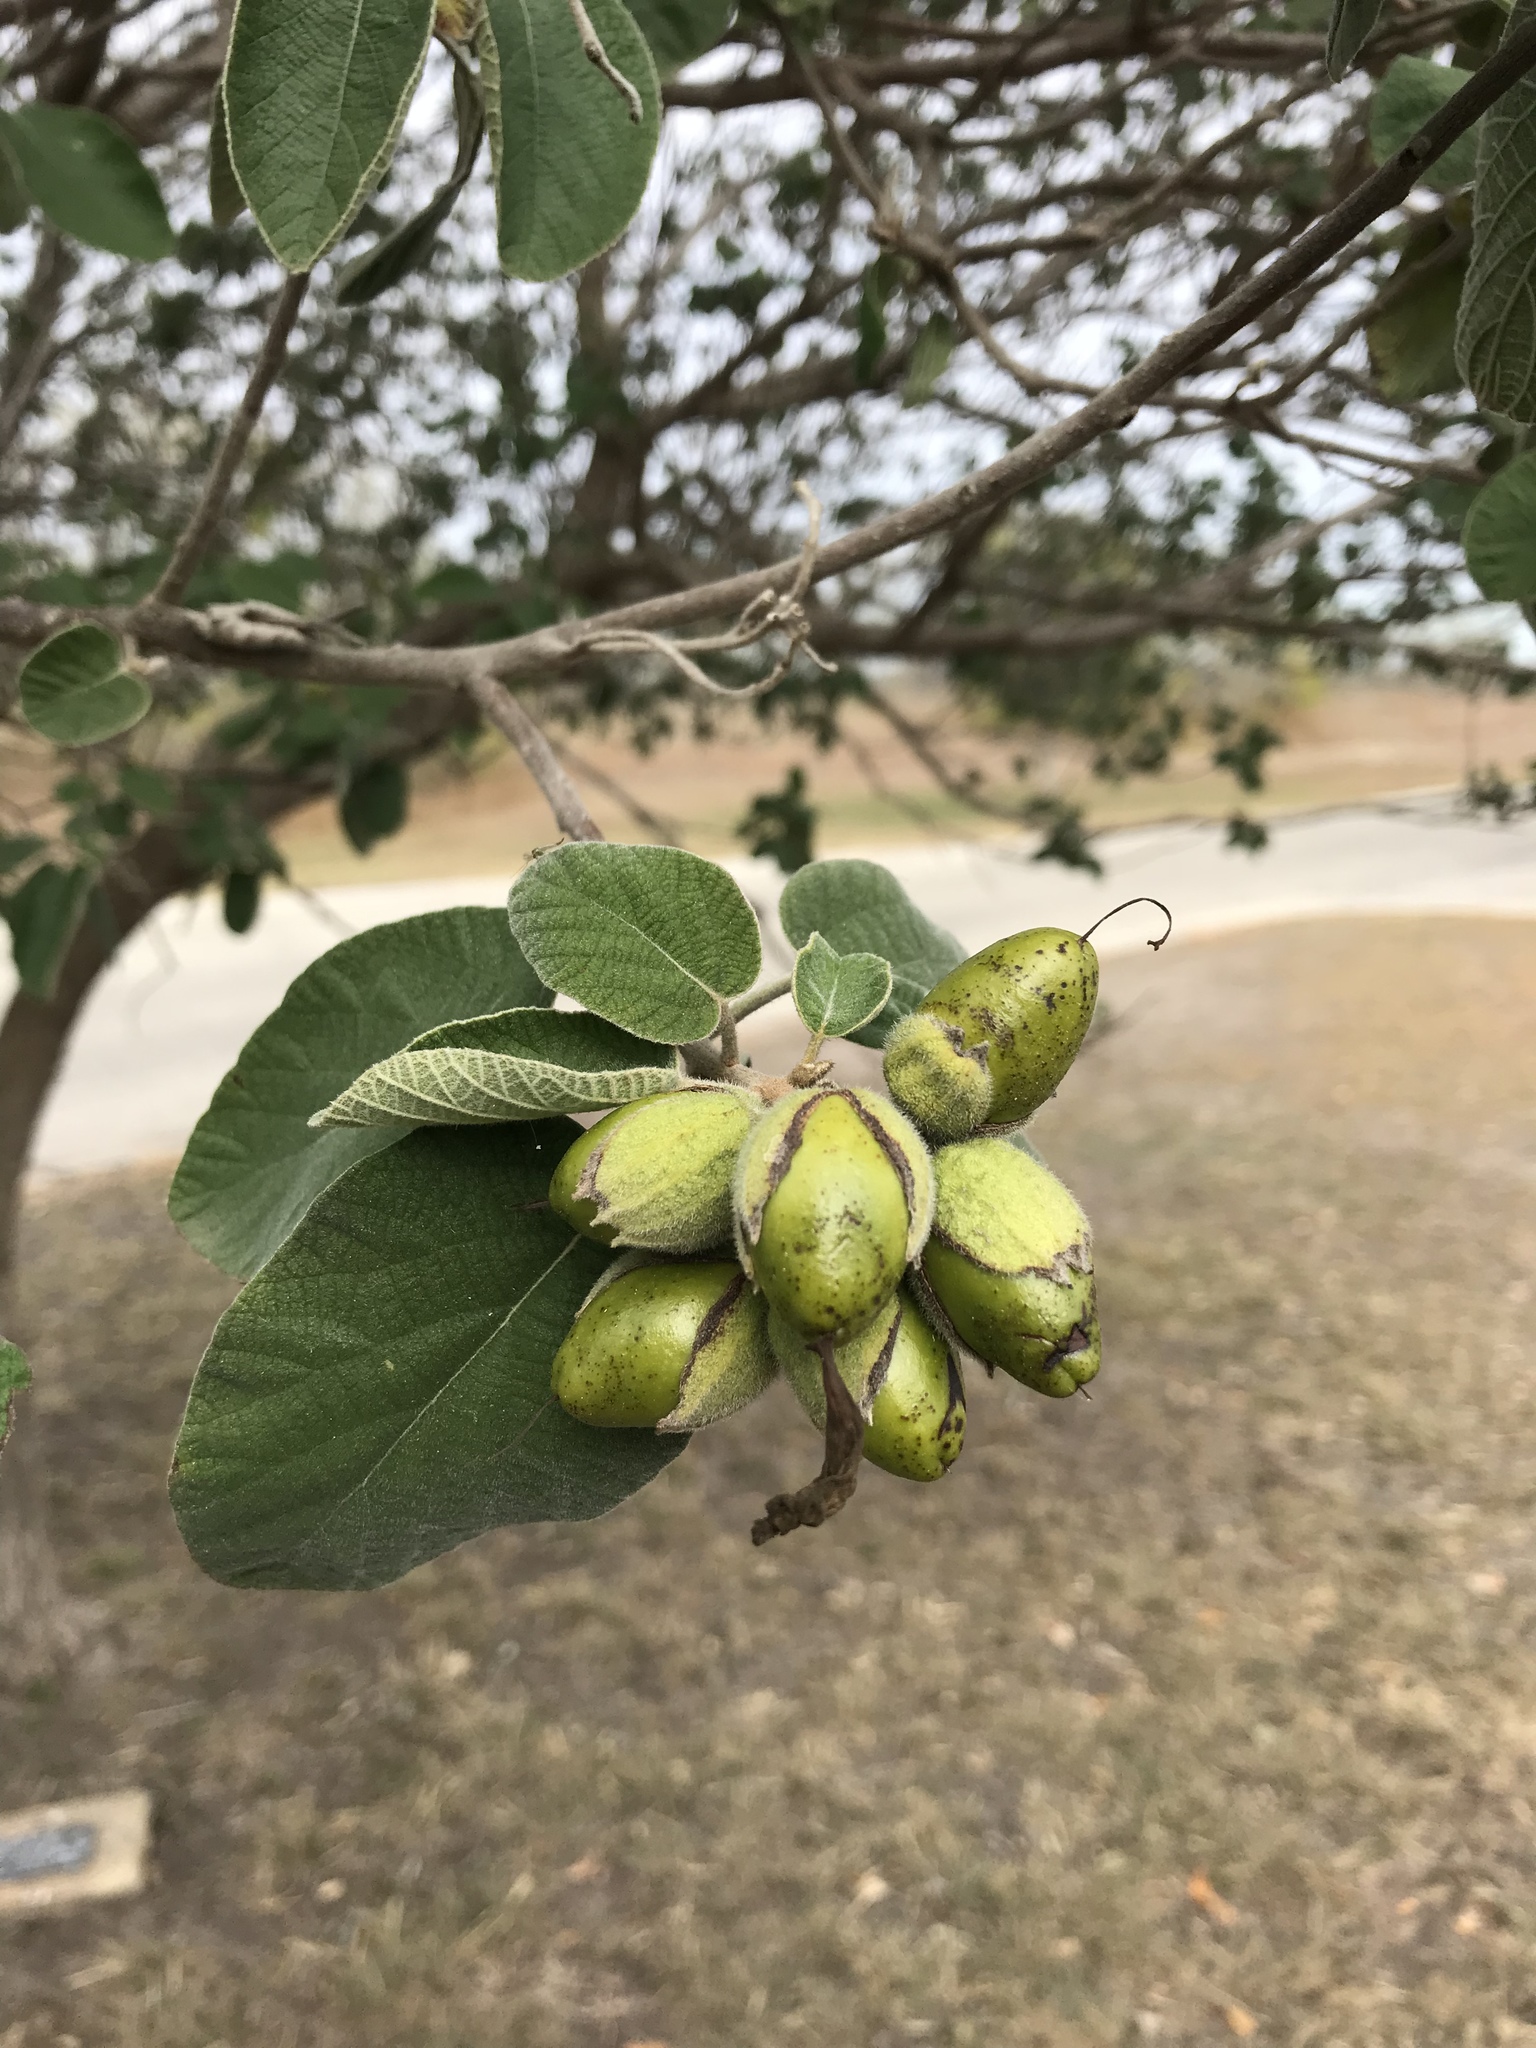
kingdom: Plantae
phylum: Tracheophyta
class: Magnoliopsida
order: Boraginales
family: Cordiaceae
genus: Cordia
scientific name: Cordia boissieri
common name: Mexican-olive
